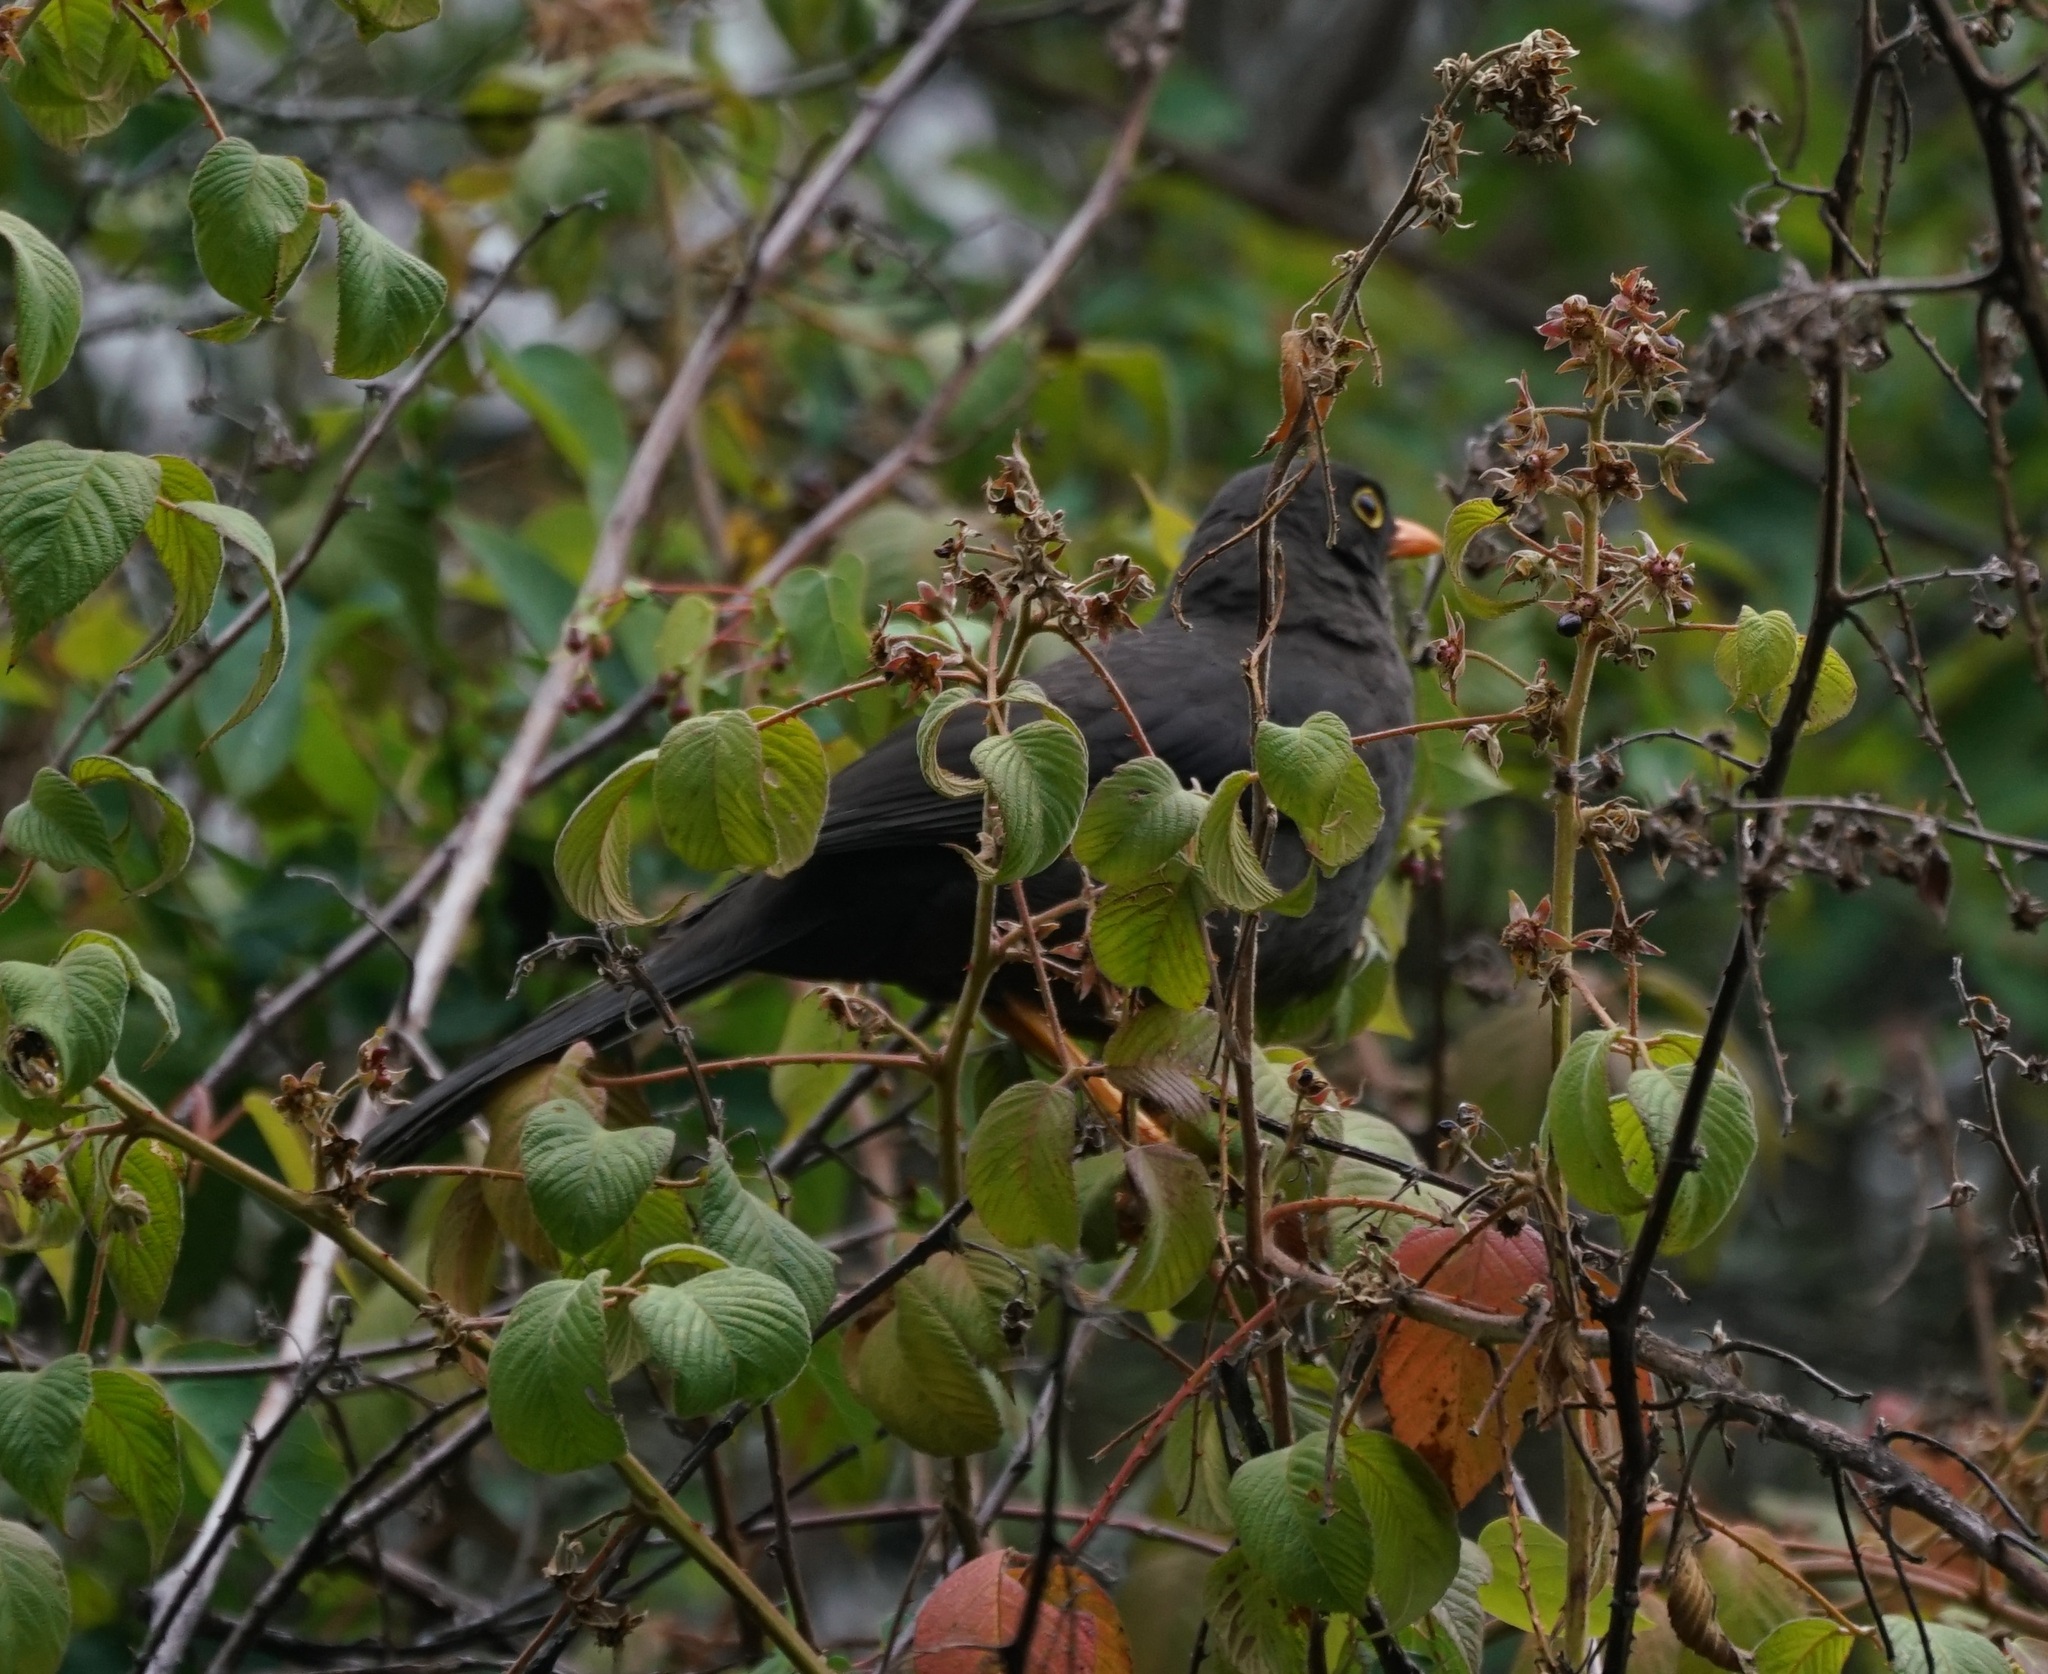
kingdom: Animalia
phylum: Chordata
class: Aves
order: Passeriformes
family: Turdidae
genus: Turdus
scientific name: Turdus fuscater
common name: Great thrush
